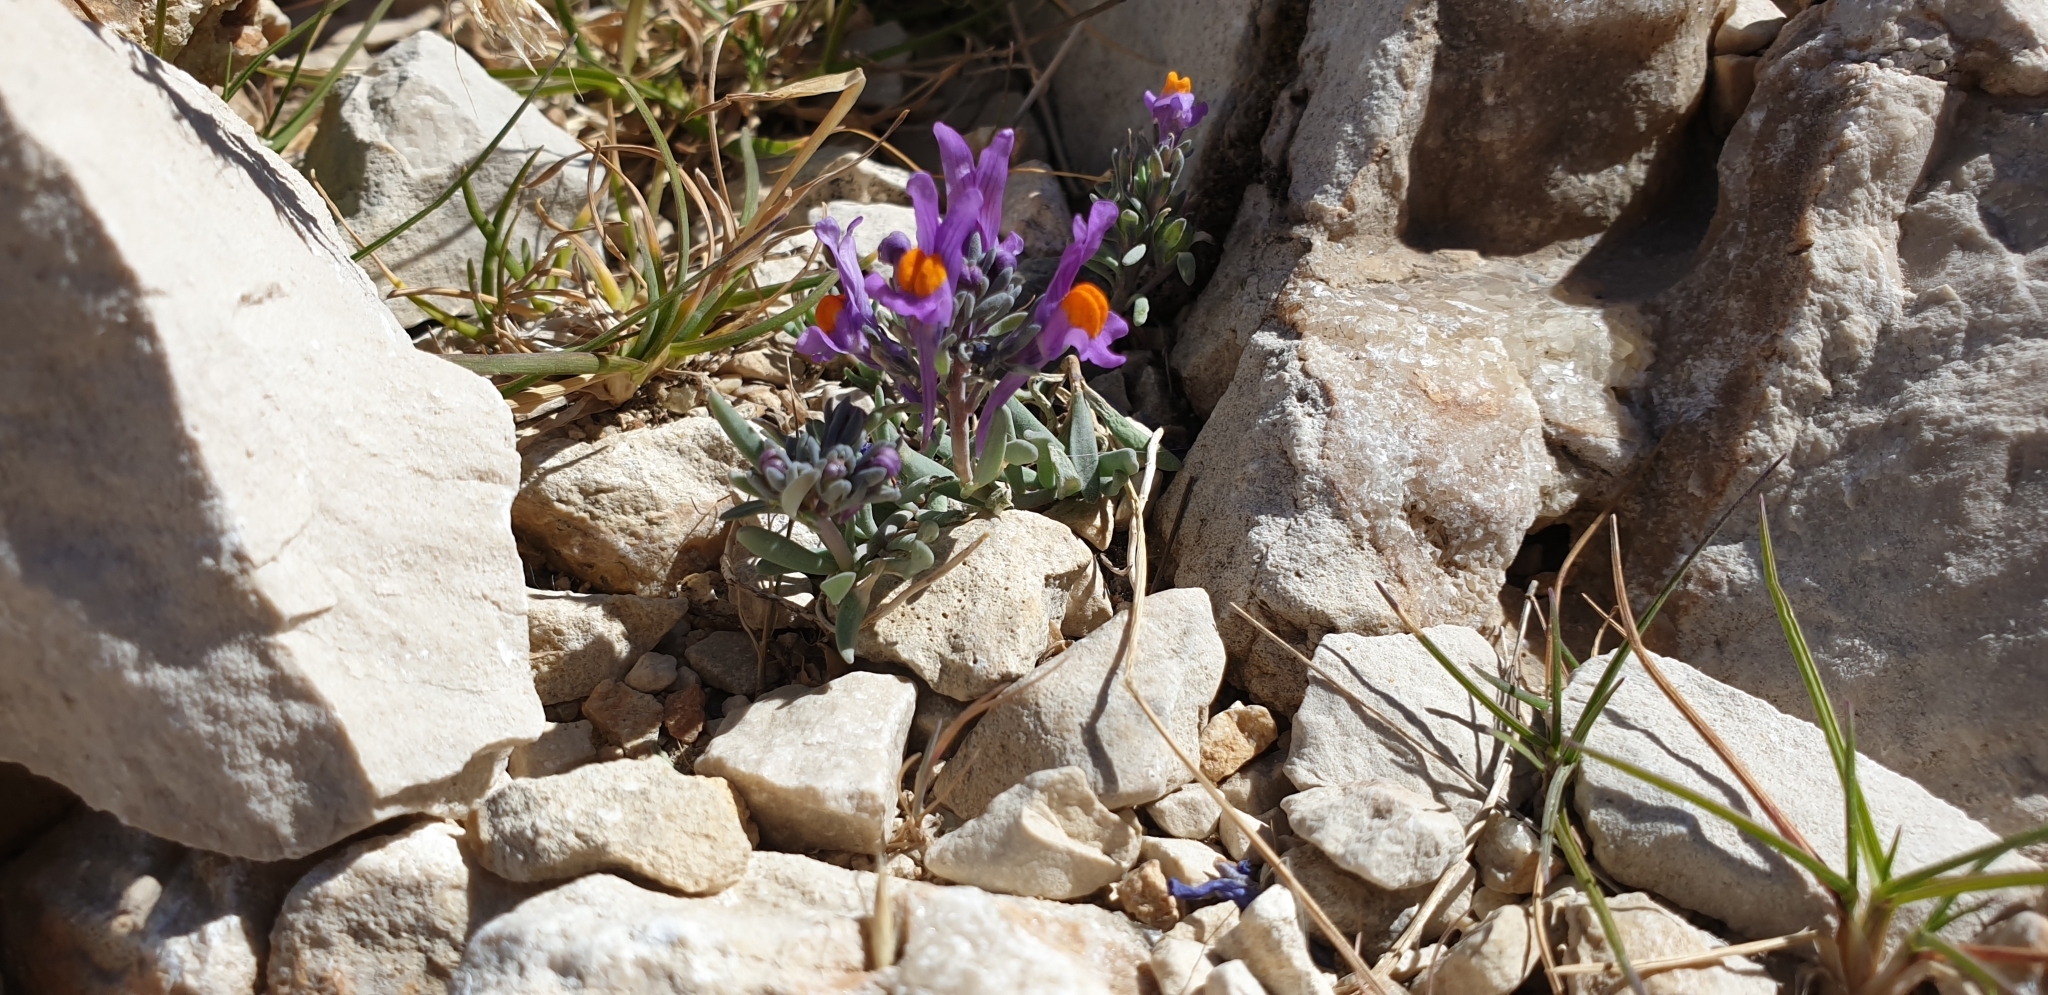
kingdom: Plantae
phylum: Tracheophyta
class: Magnoliopsida
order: Lamiales
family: Plantaginaceae
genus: Linaria
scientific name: Linaria alpina
